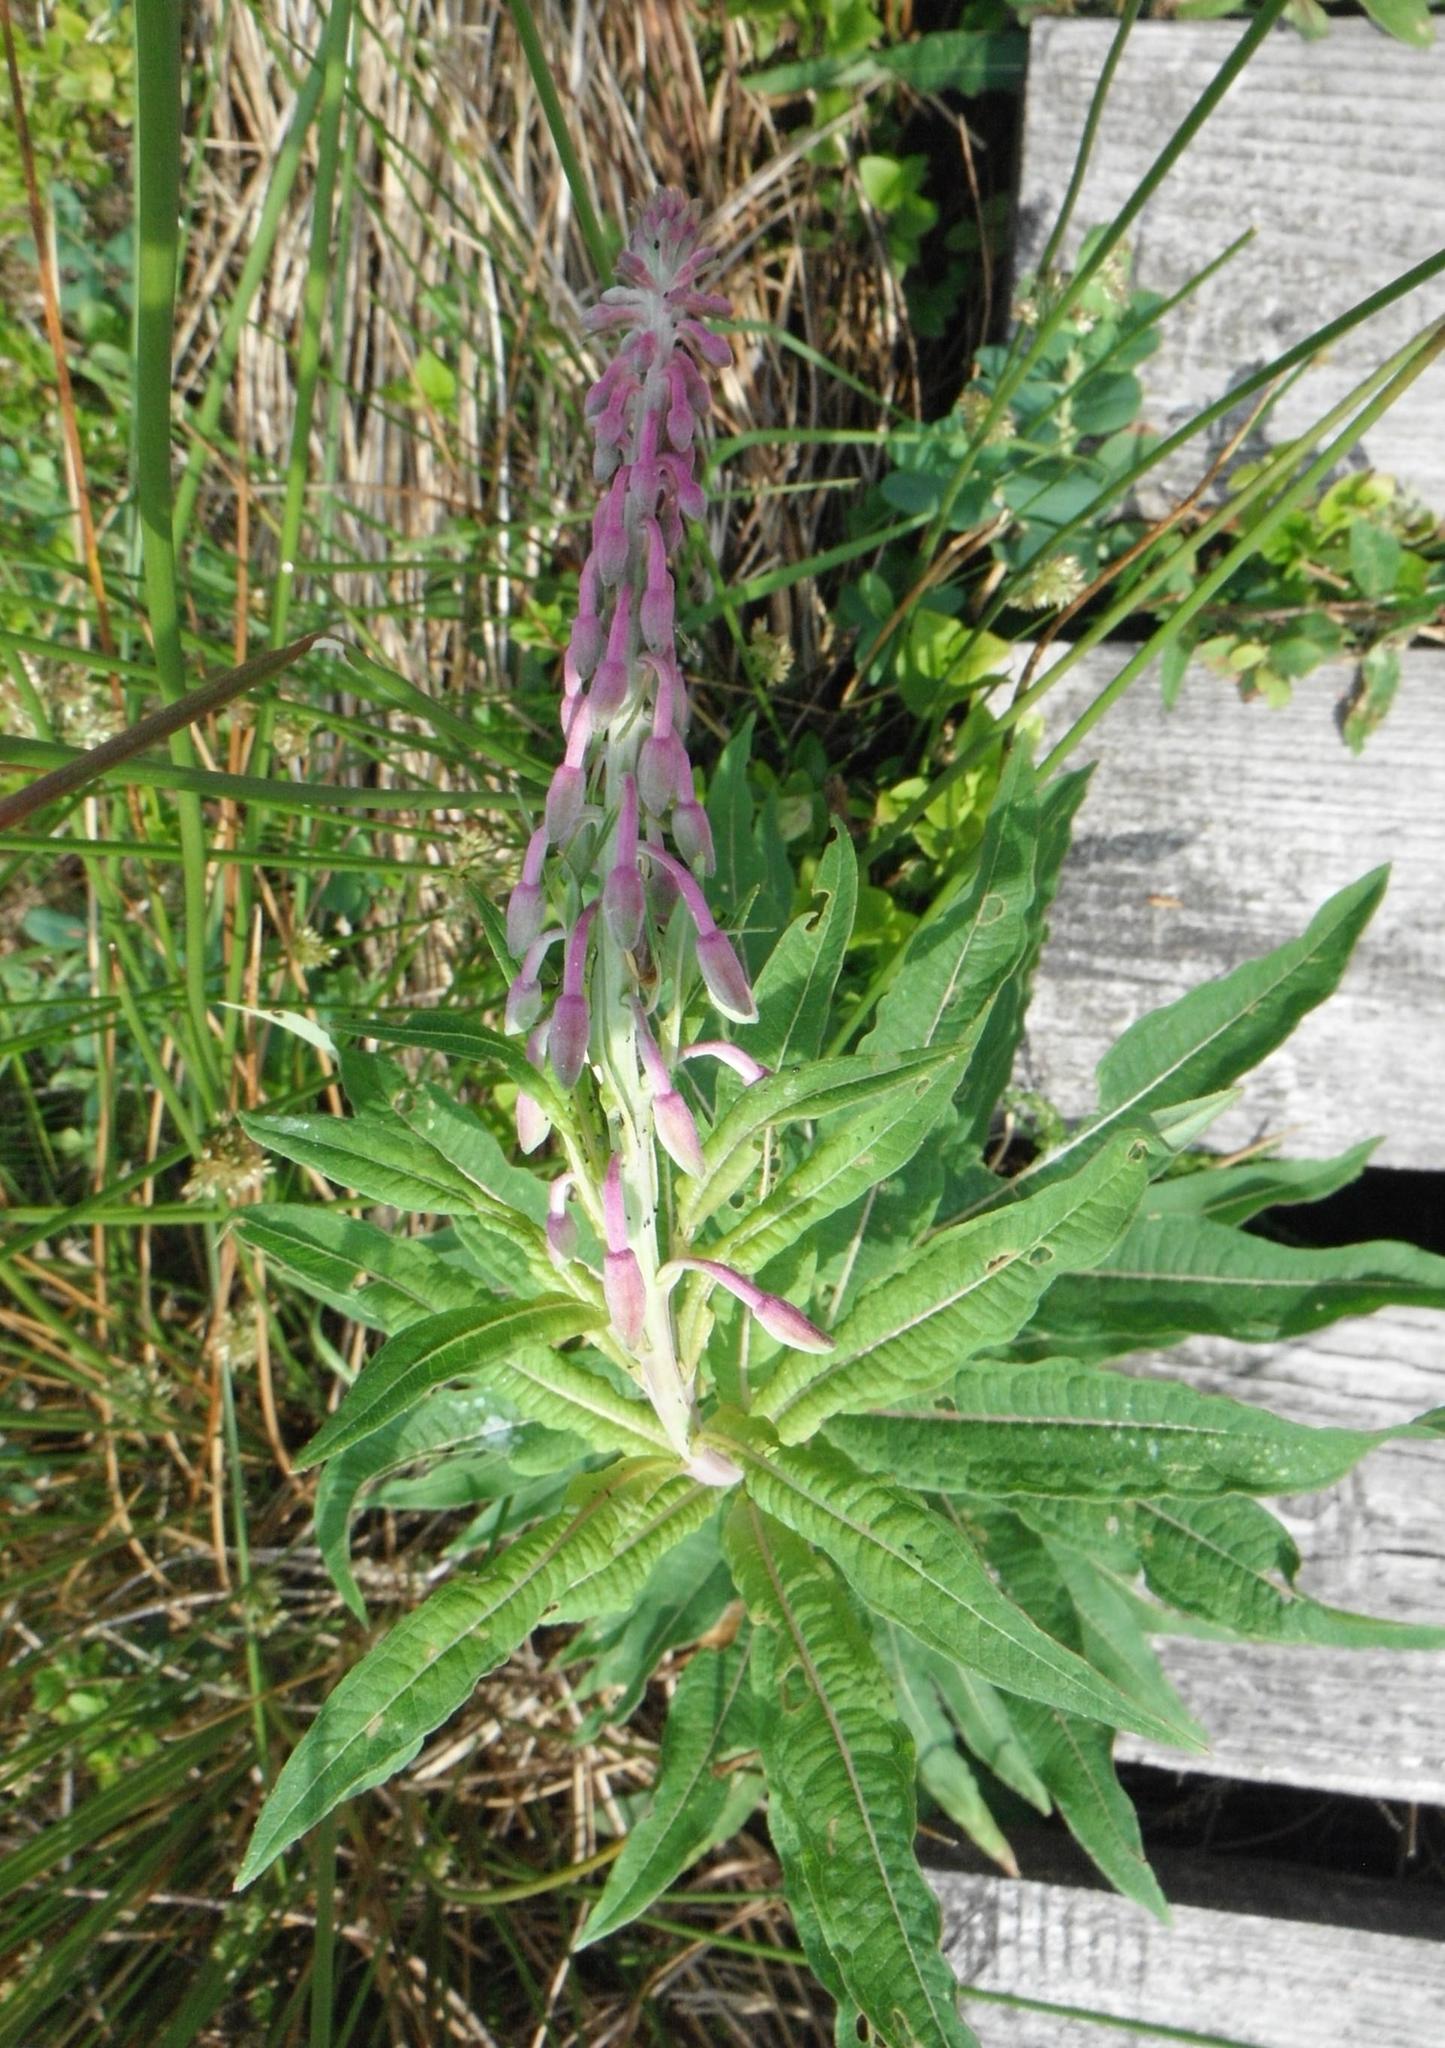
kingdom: Plantae
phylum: Tracheophyta
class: Magnoliopsida
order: Myrtales
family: Onagraceae
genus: Chamaenerion
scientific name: Chamaenerion angustifolium
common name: Fireweed
